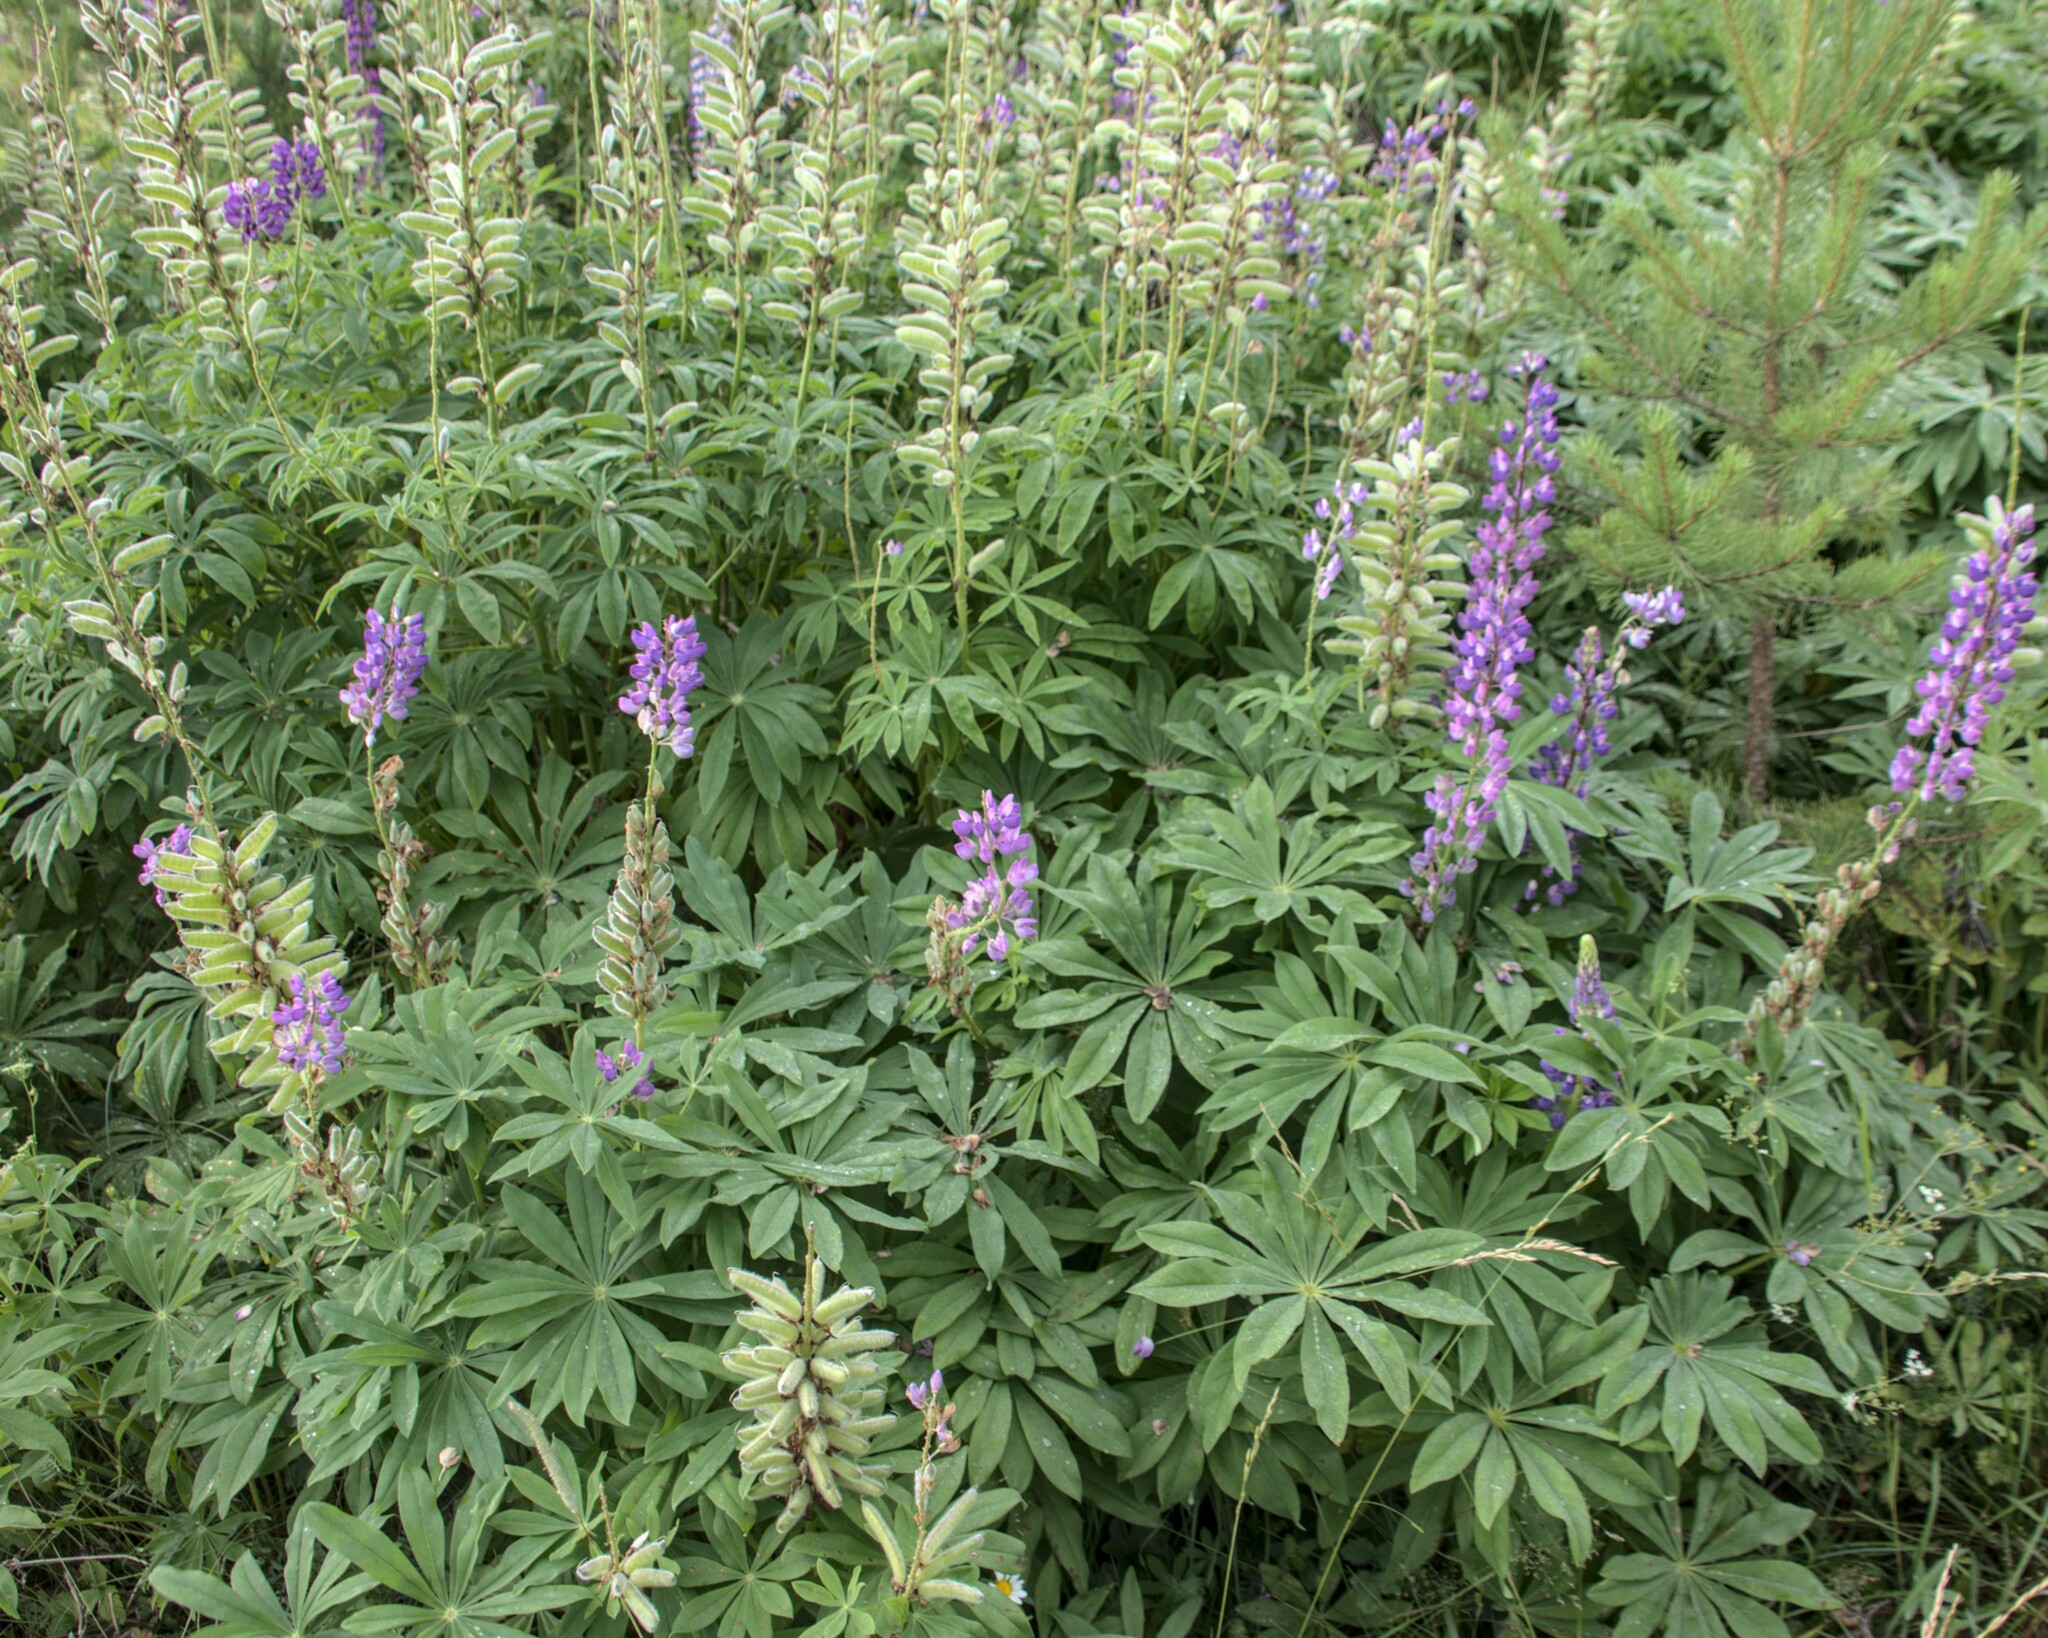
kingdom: Plantae
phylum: Tracheophyta
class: Magnoliopsida
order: Fabales
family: Fabaceae
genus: Lupinus
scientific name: Lupinus polyphyllus
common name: Garden lupin
